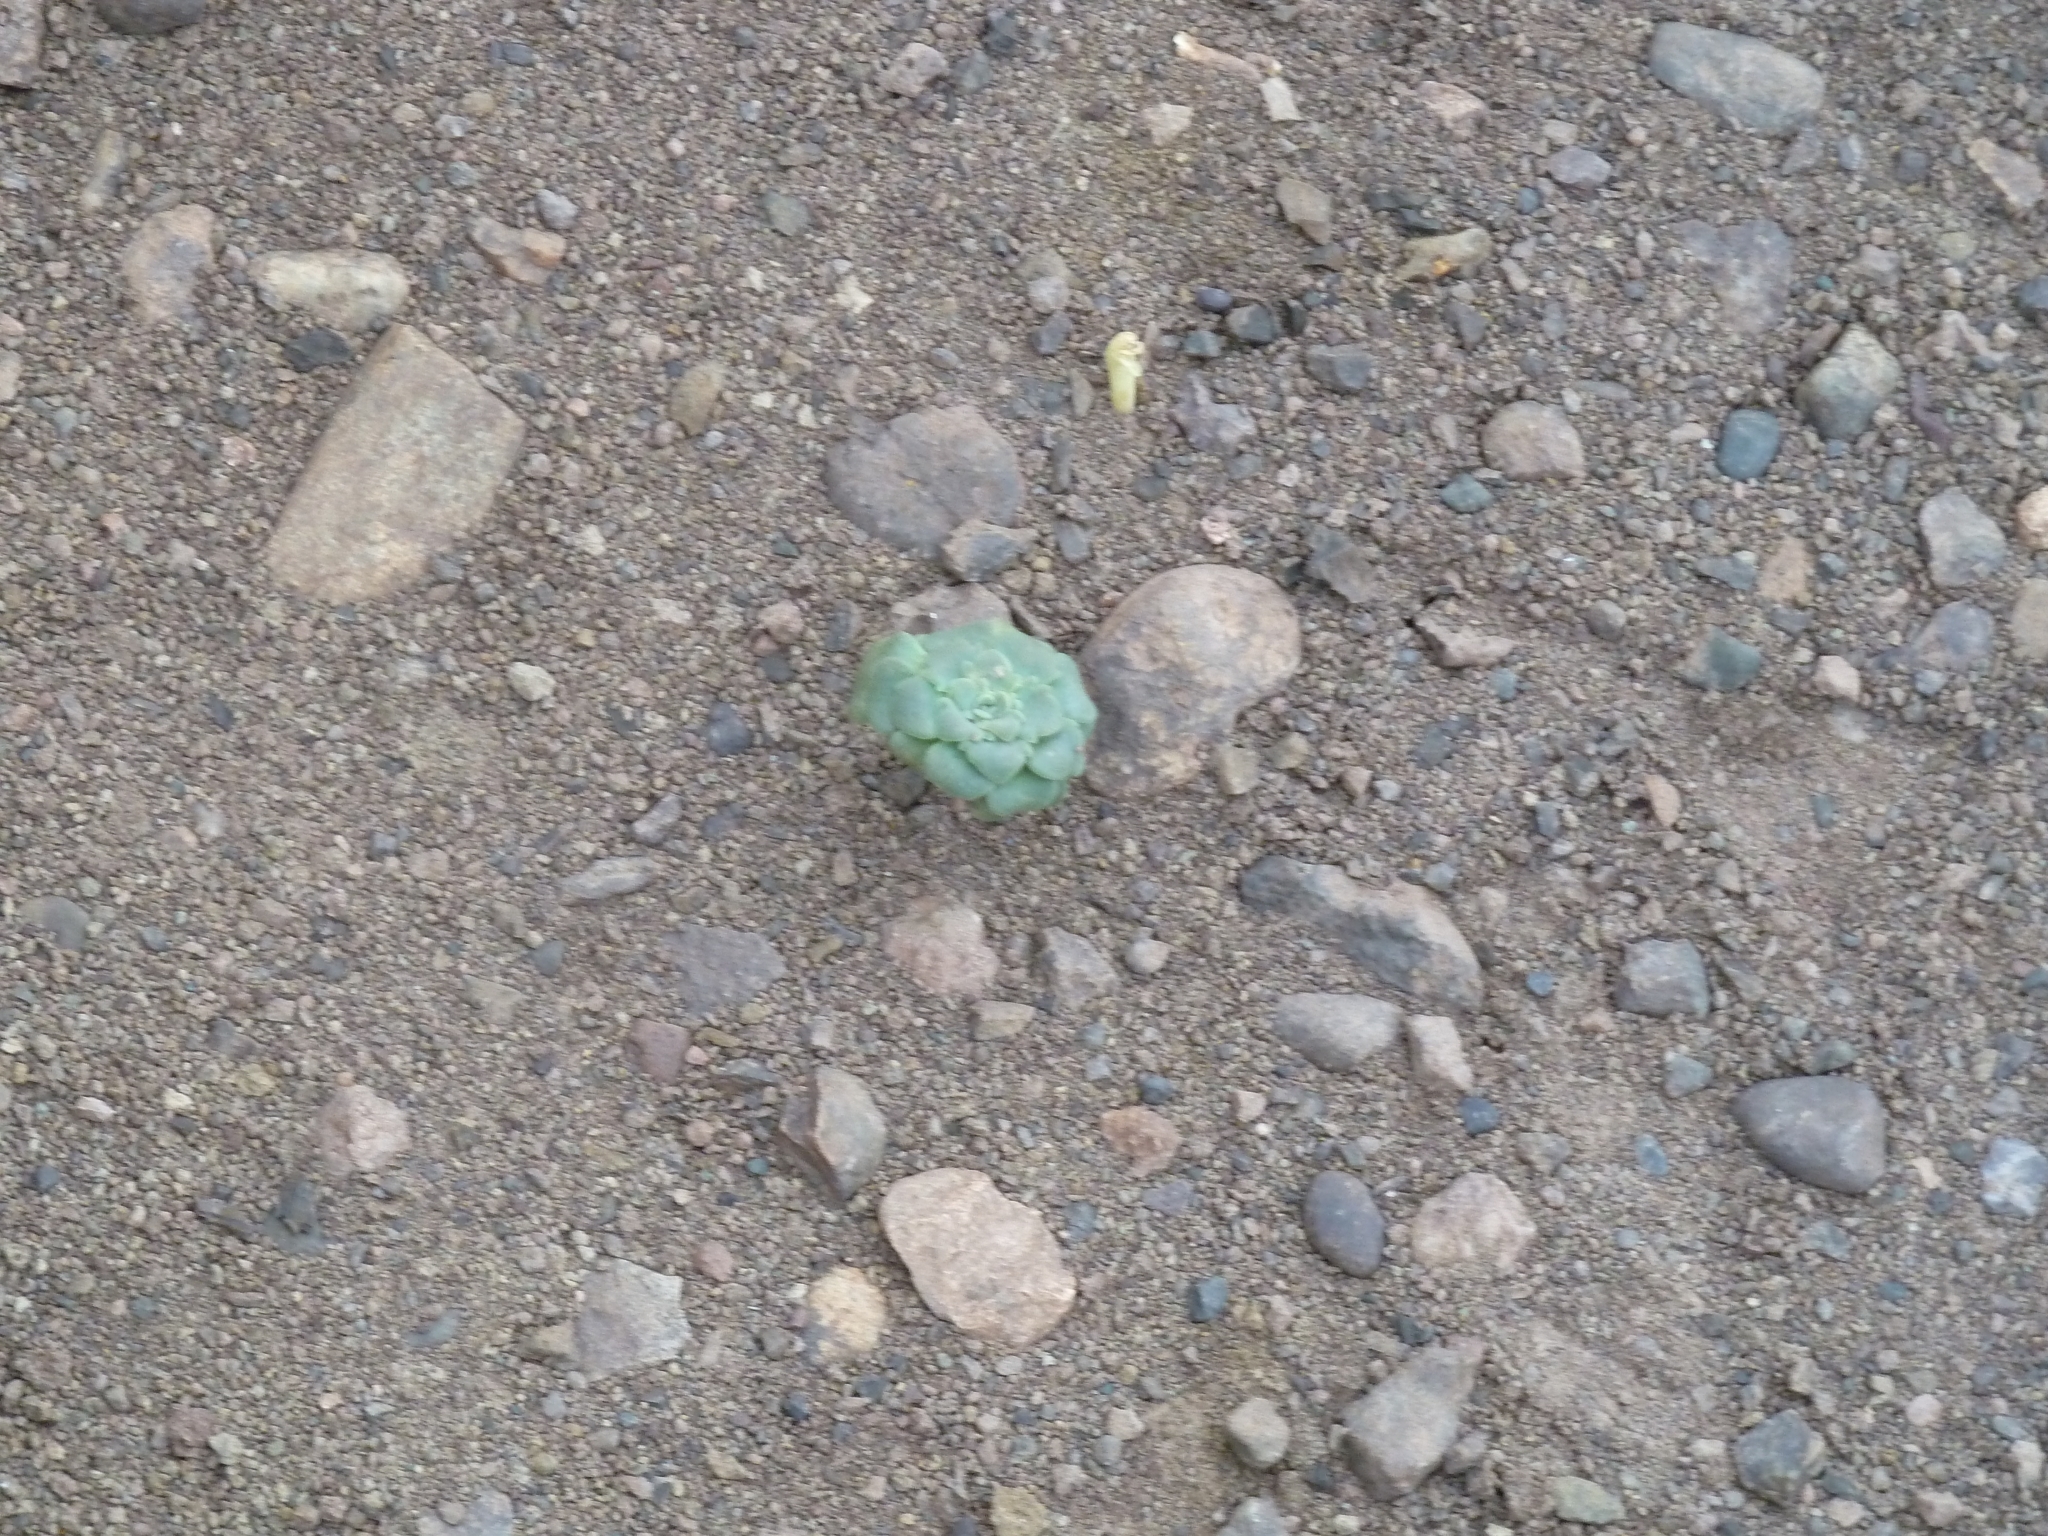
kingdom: Plantae
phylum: Tracheophyta
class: Magnoliopsida
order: Asterales
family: Calyceraceae
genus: Moschopsis
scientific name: Moschopsis rosulata
